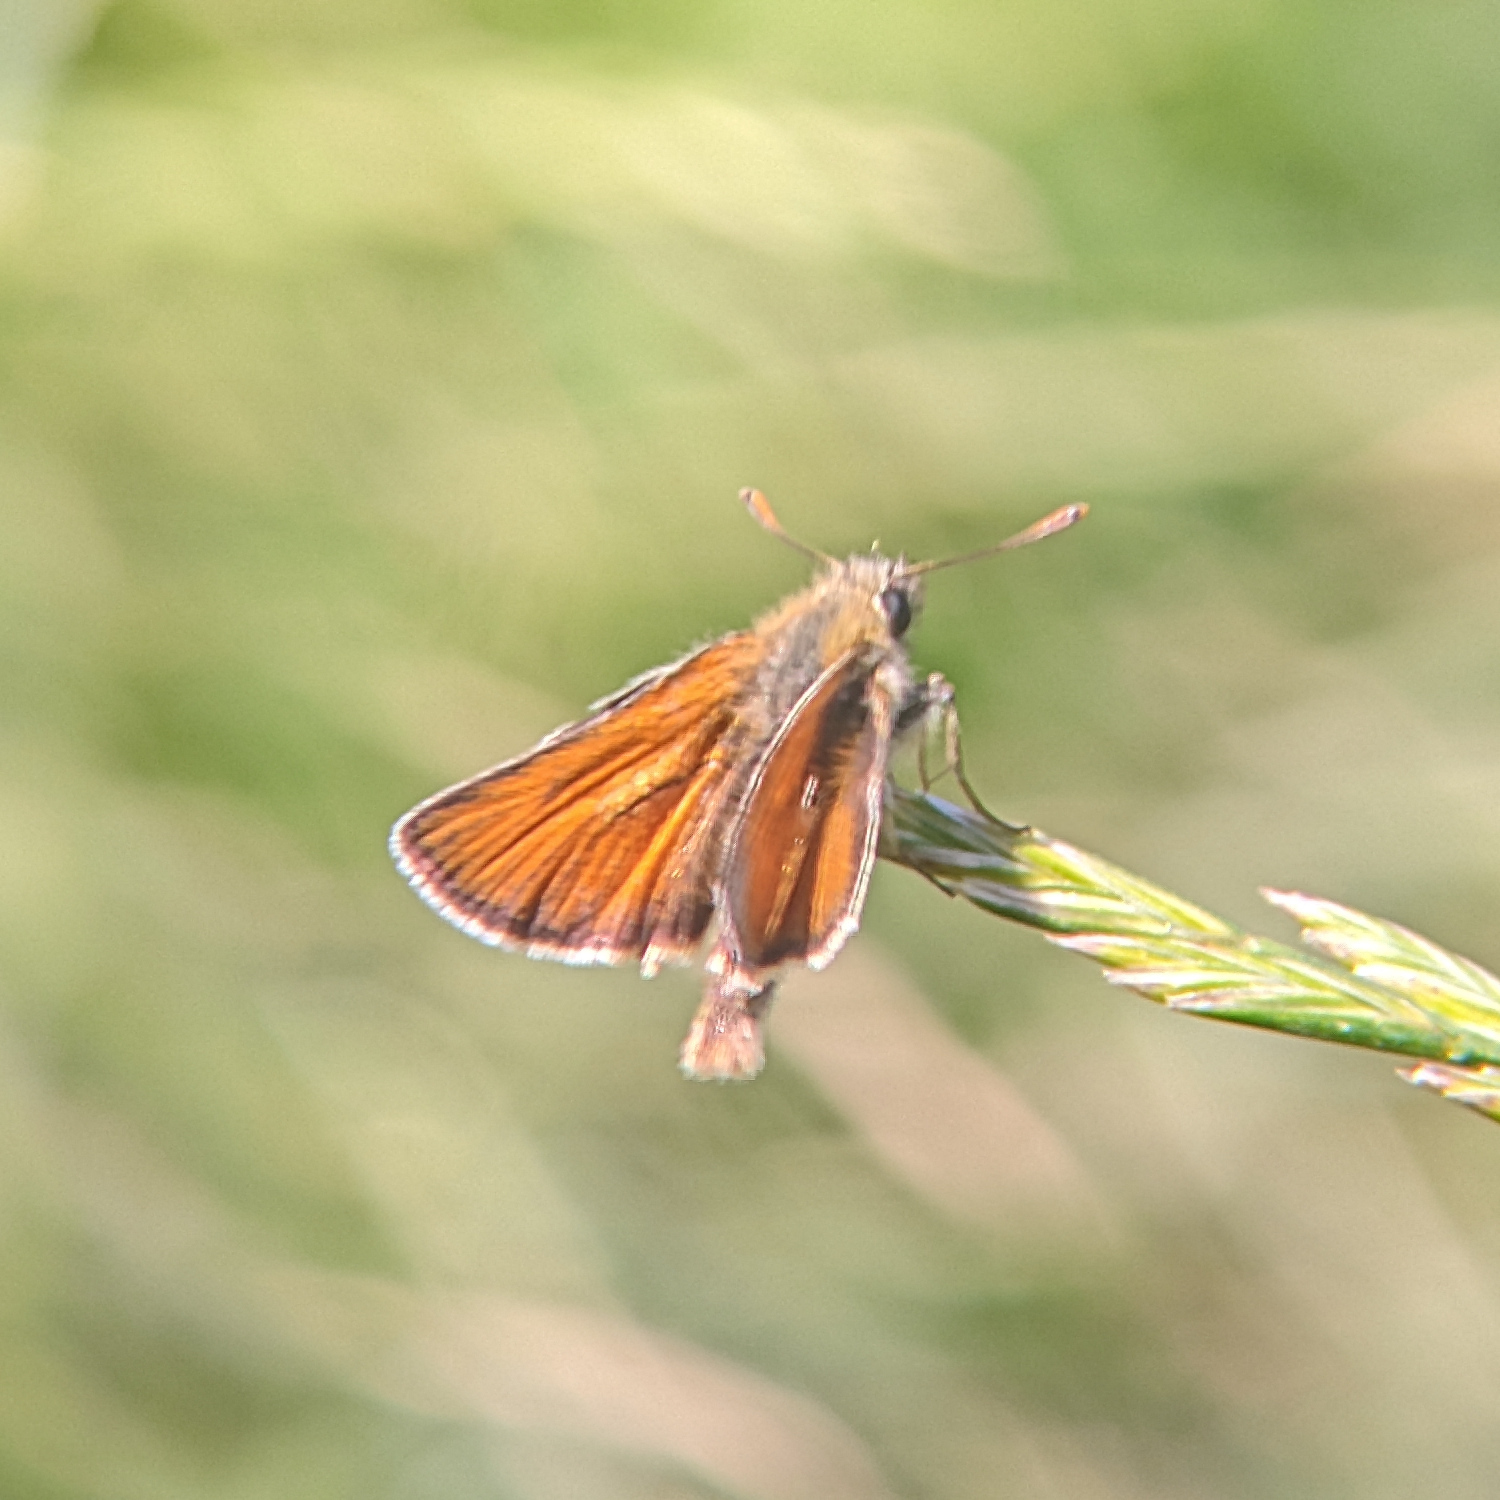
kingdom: Animalia
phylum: Arthropoda
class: Insecta
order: Lepidoptera
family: Hesperiidae
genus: Thymelicus
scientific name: Thymelicus sylvestris
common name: Small skipper
